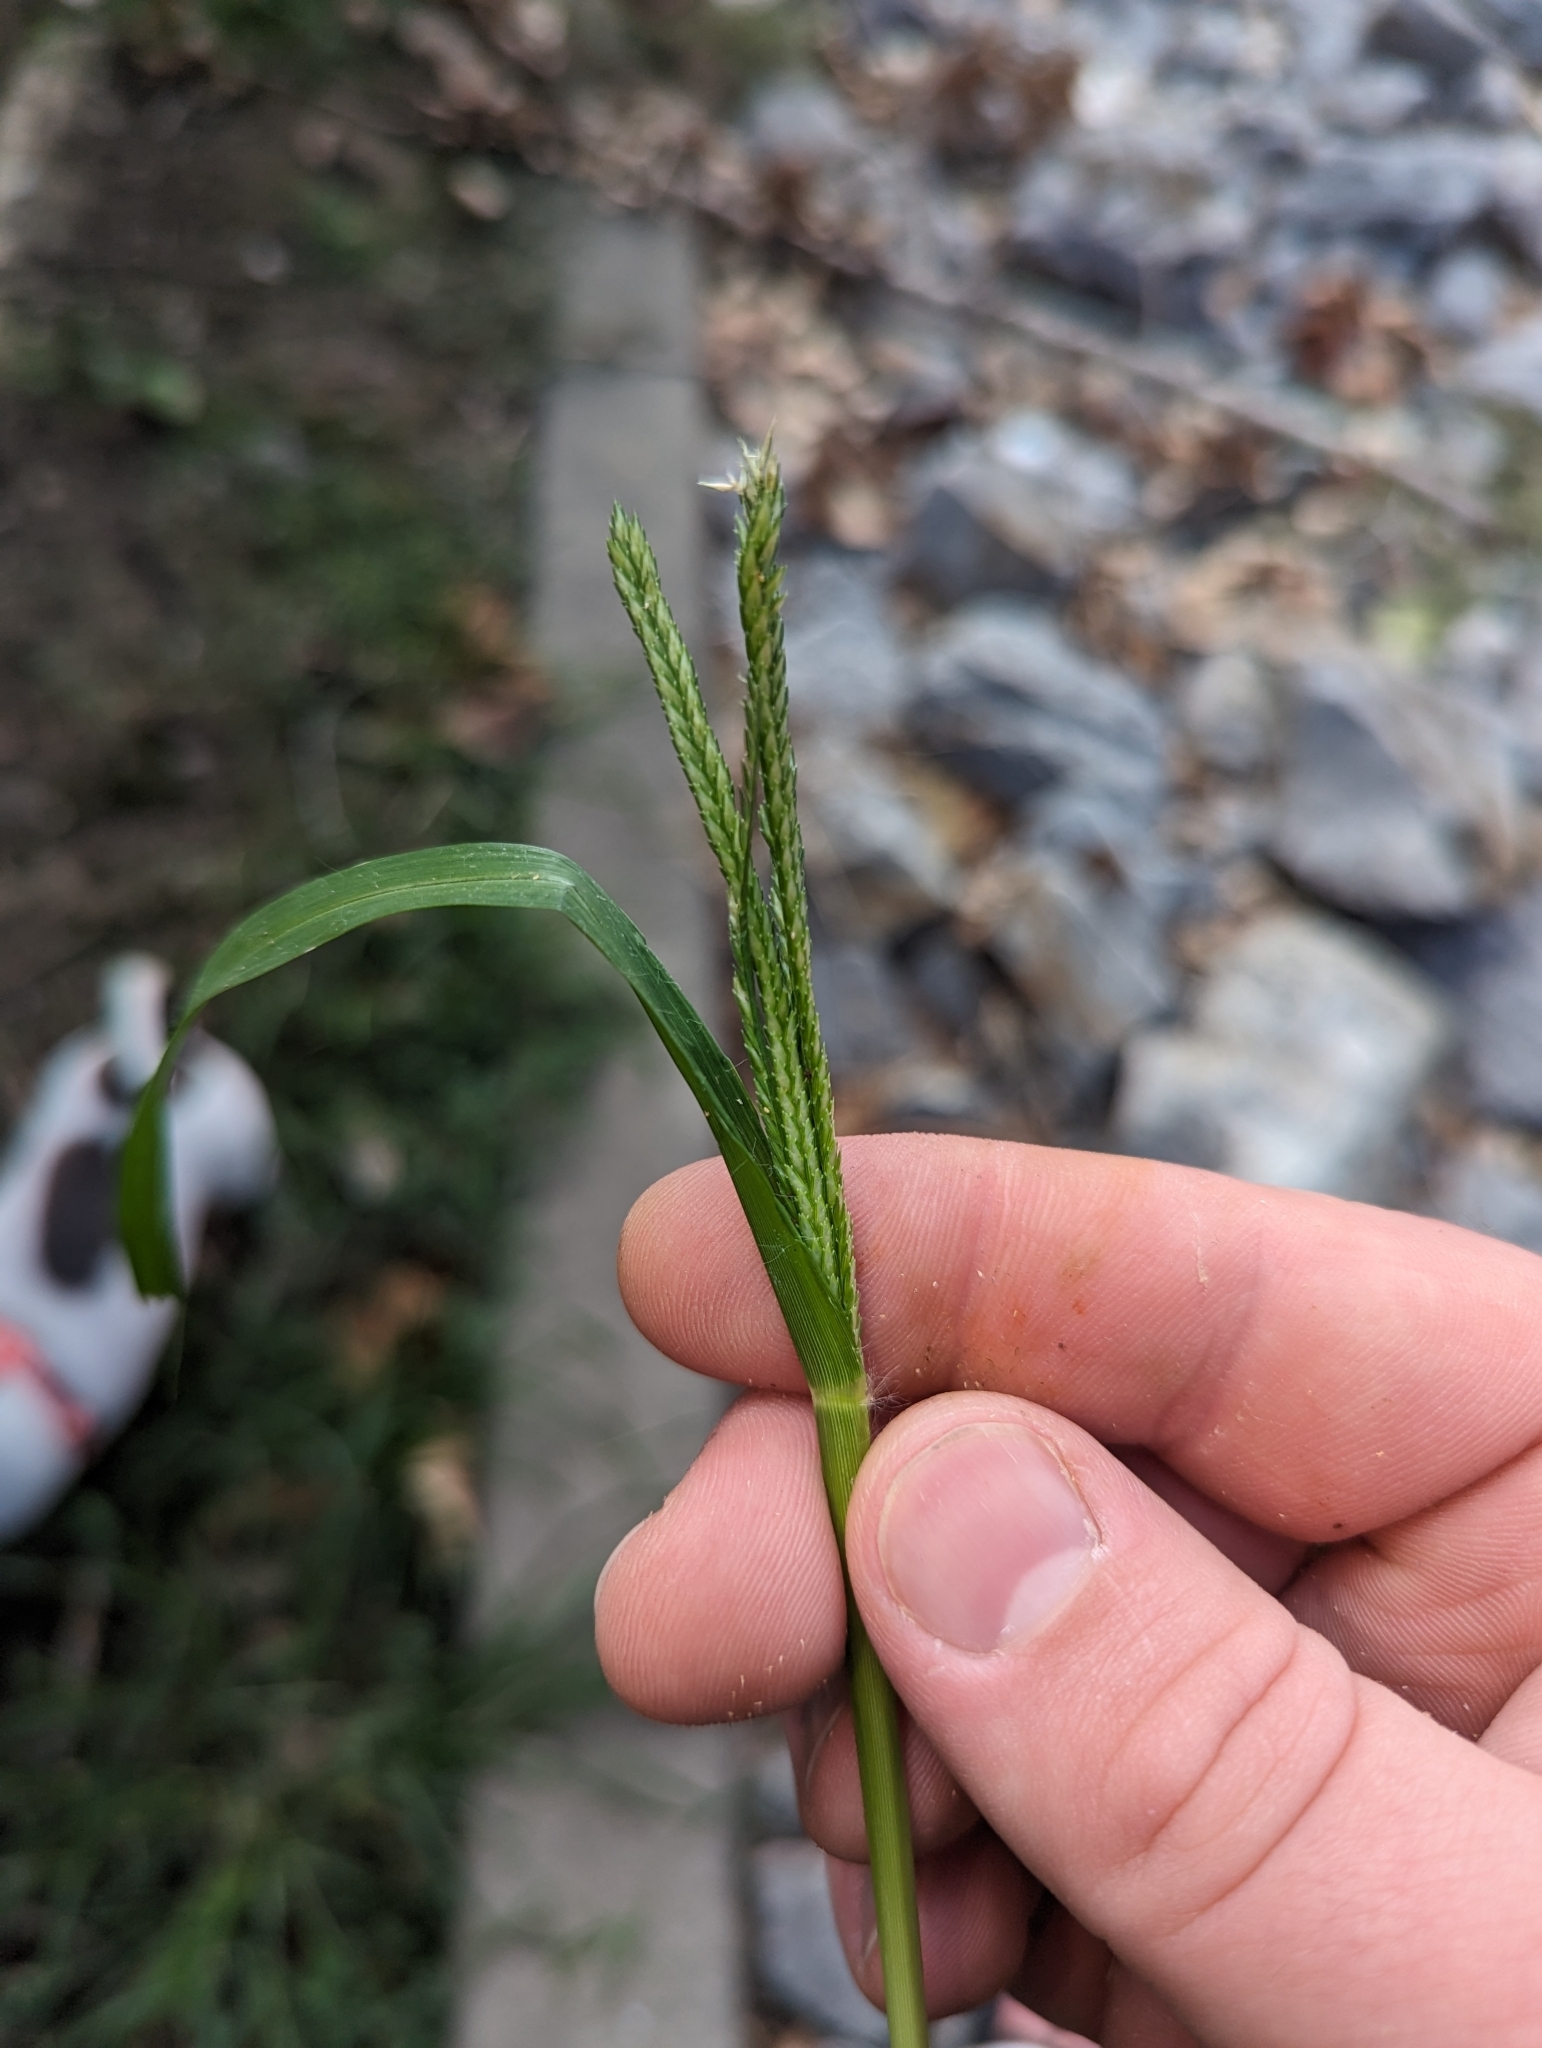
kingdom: Plantae
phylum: Tracheophyta
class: Liliopsida
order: Poales
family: Poaceae
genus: Eleusine
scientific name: Eleusine indica
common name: Yard-grass
